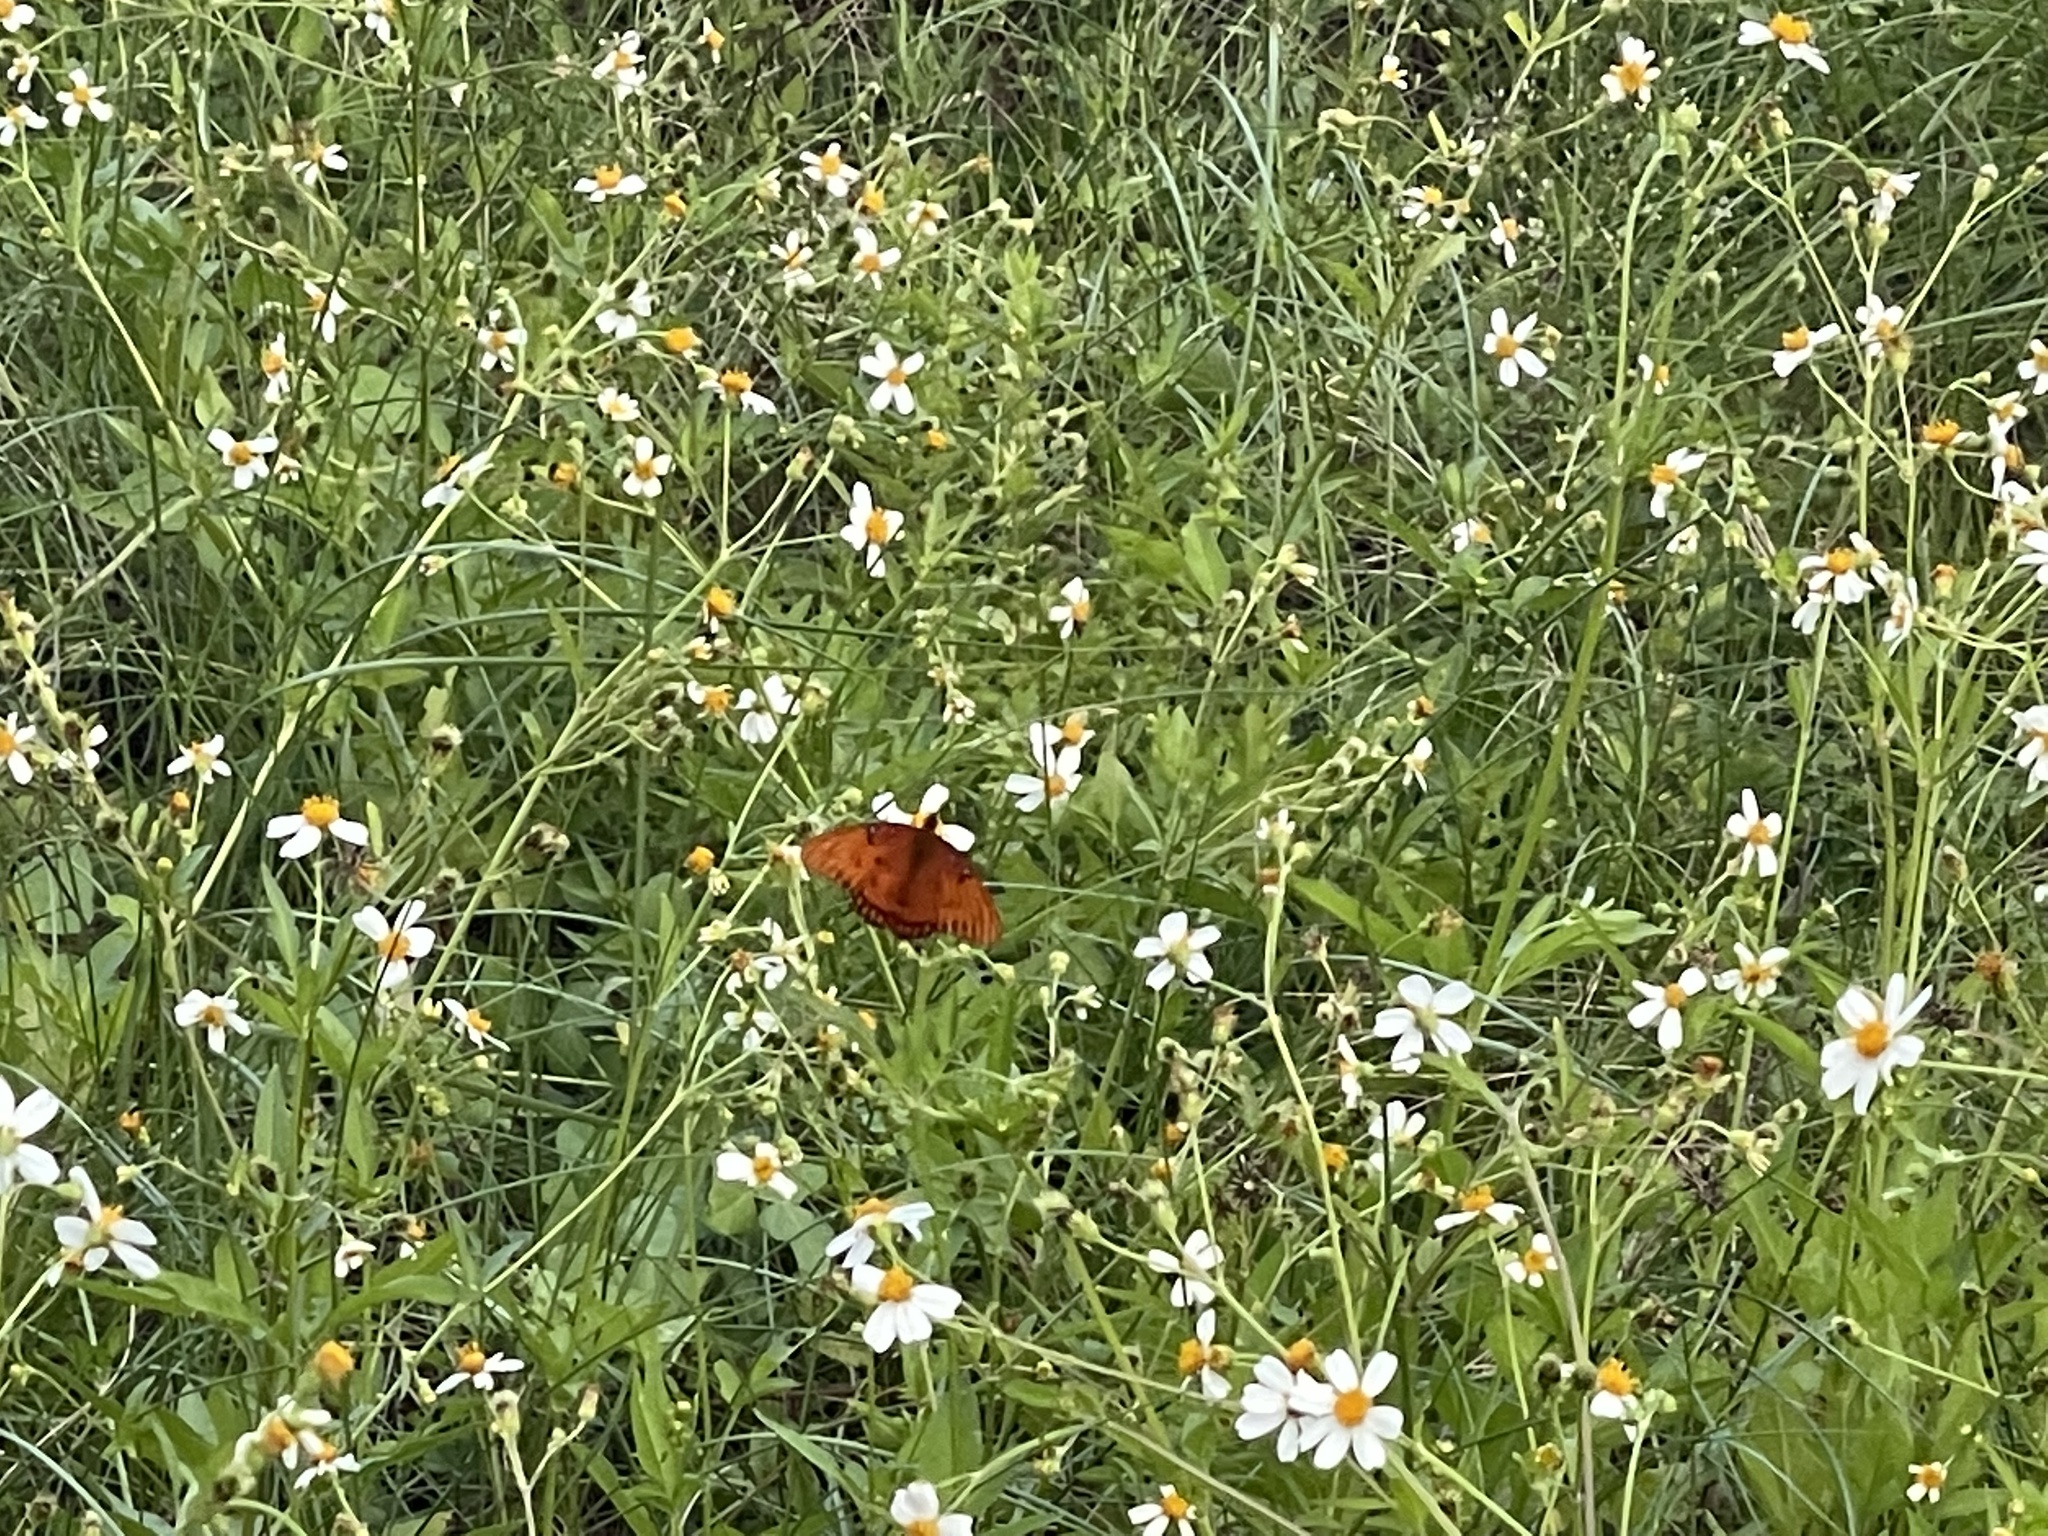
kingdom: Animalia
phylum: Arthropoda
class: Insecta
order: Lepidoptera
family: Nymphalidae
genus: Dione
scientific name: Dione vanillae
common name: Gulf fritillary
